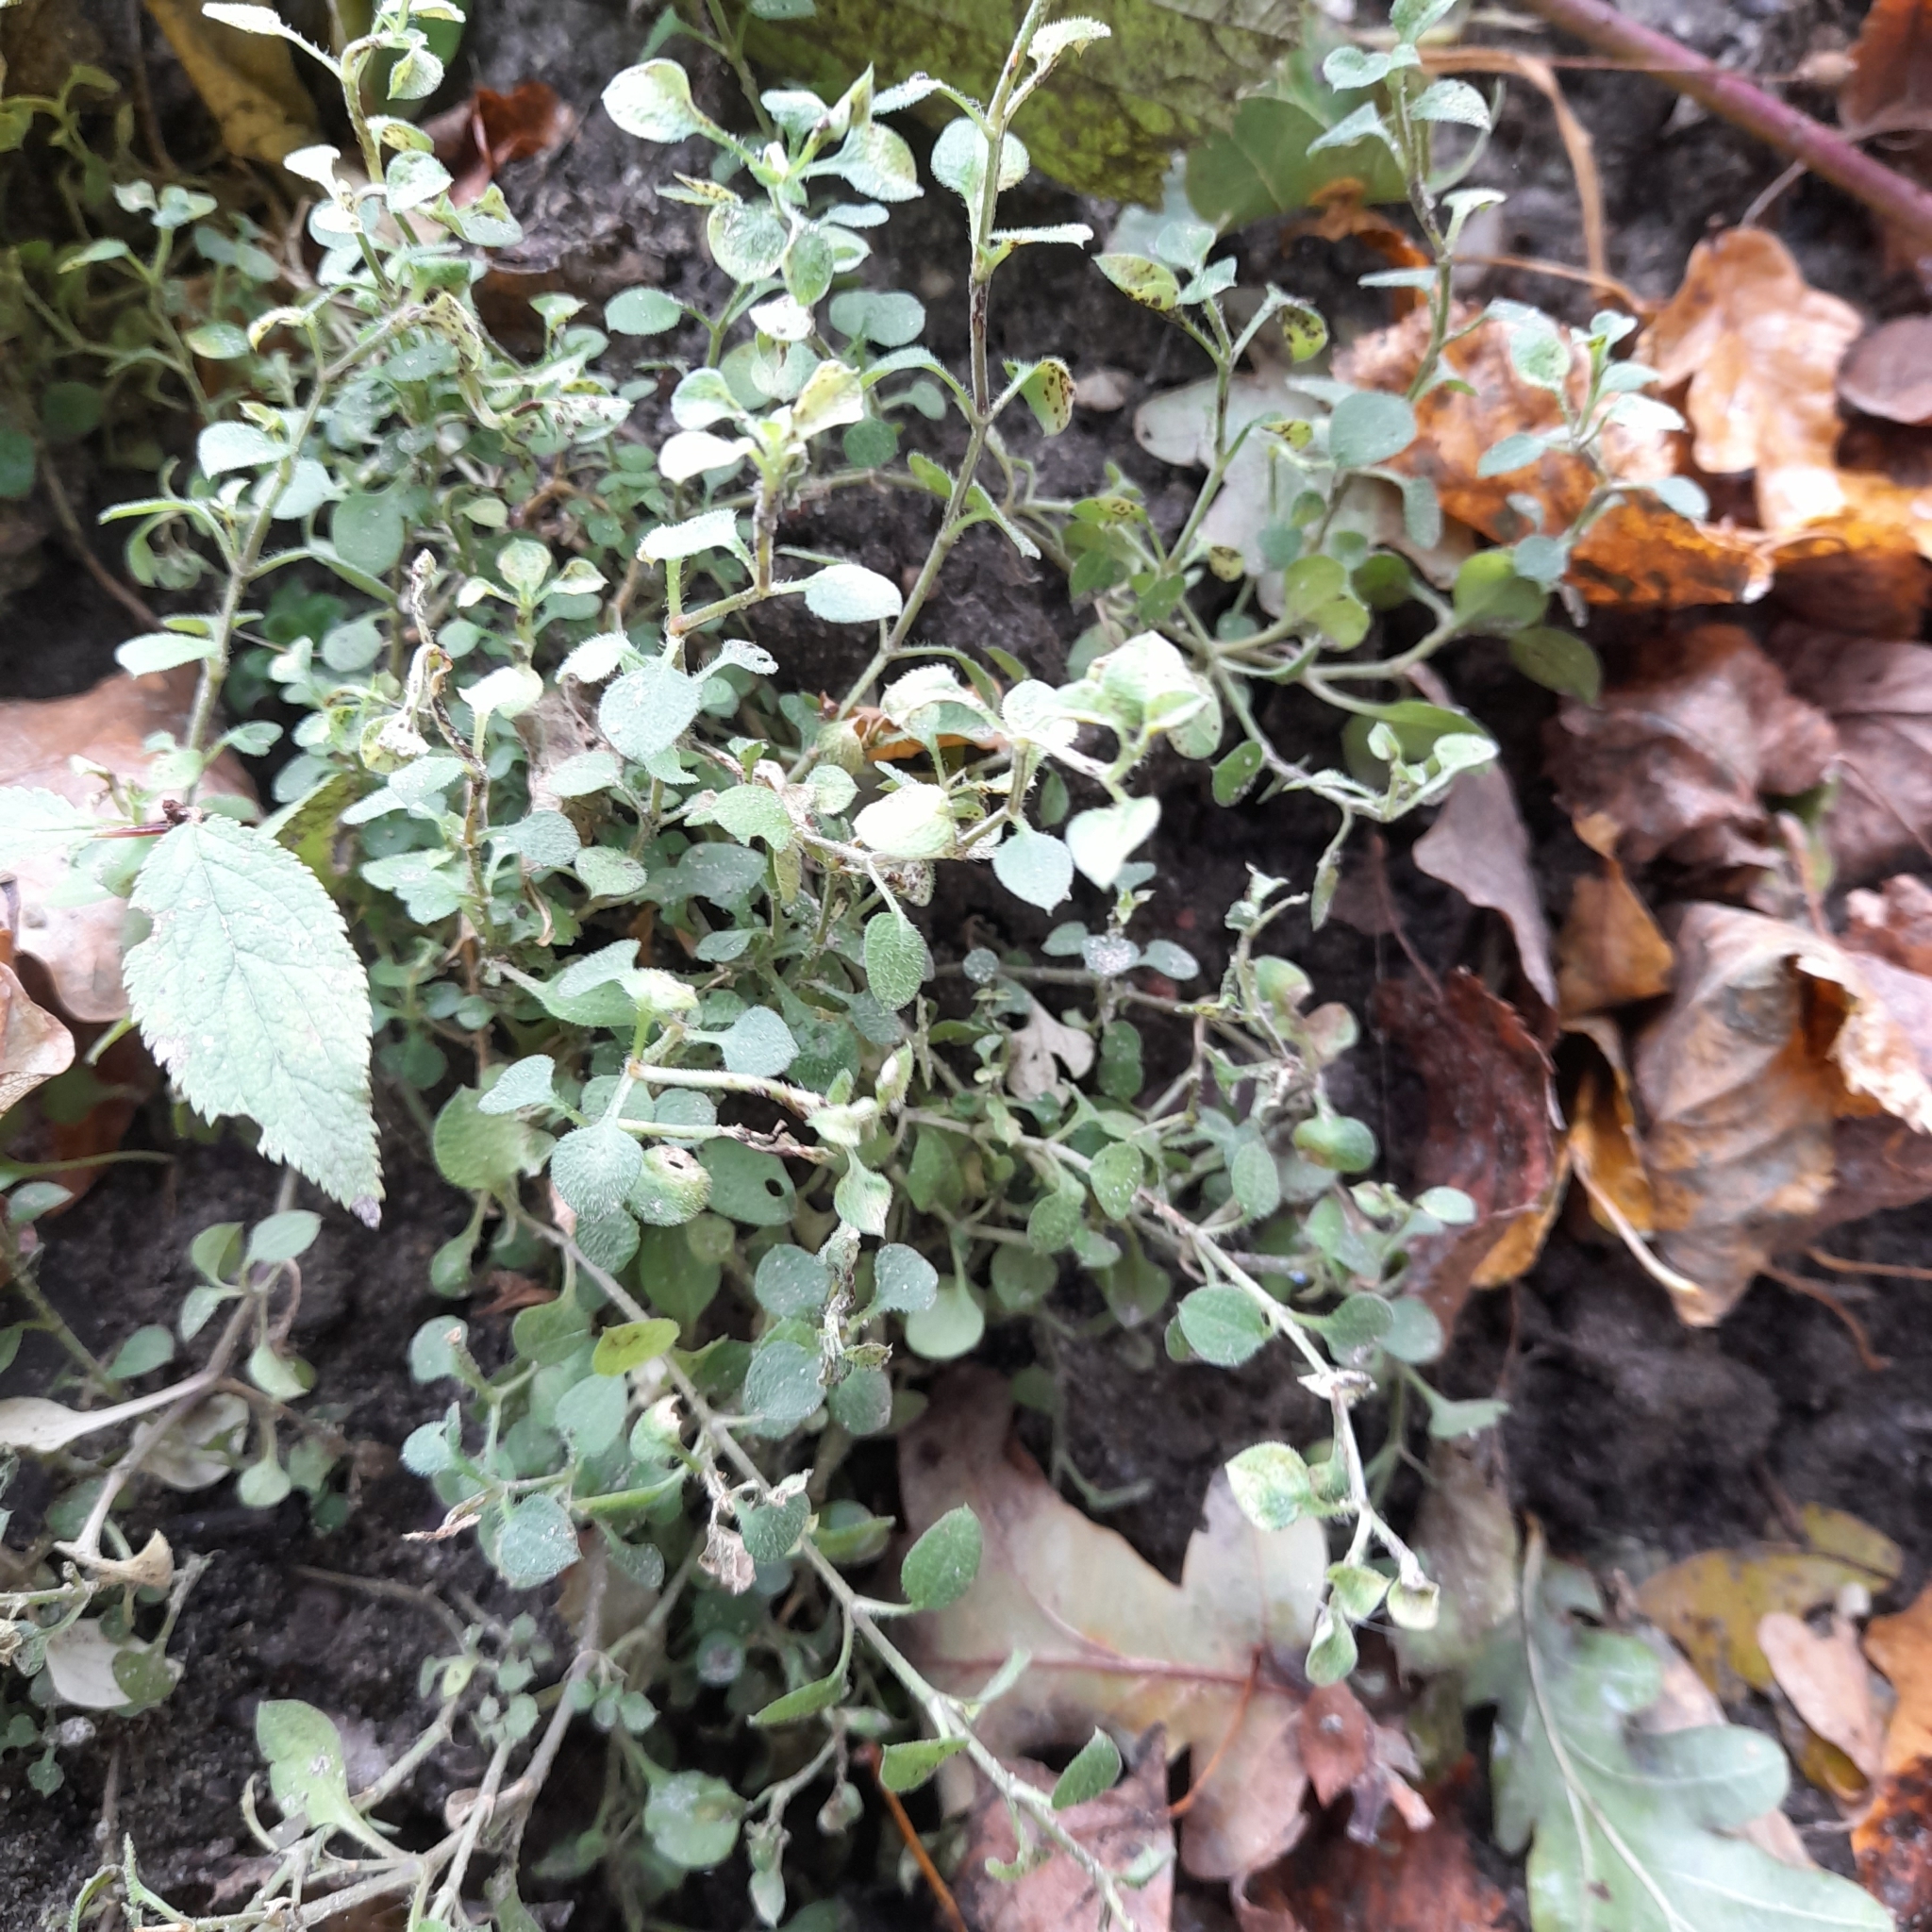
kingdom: Plantae
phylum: Tracheophyta
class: Magnoliopsida
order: Caryophyllales
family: Caryophyllaceae
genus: Moehringia
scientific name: Moehringia trinervia
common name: Three-nerved sandwort
